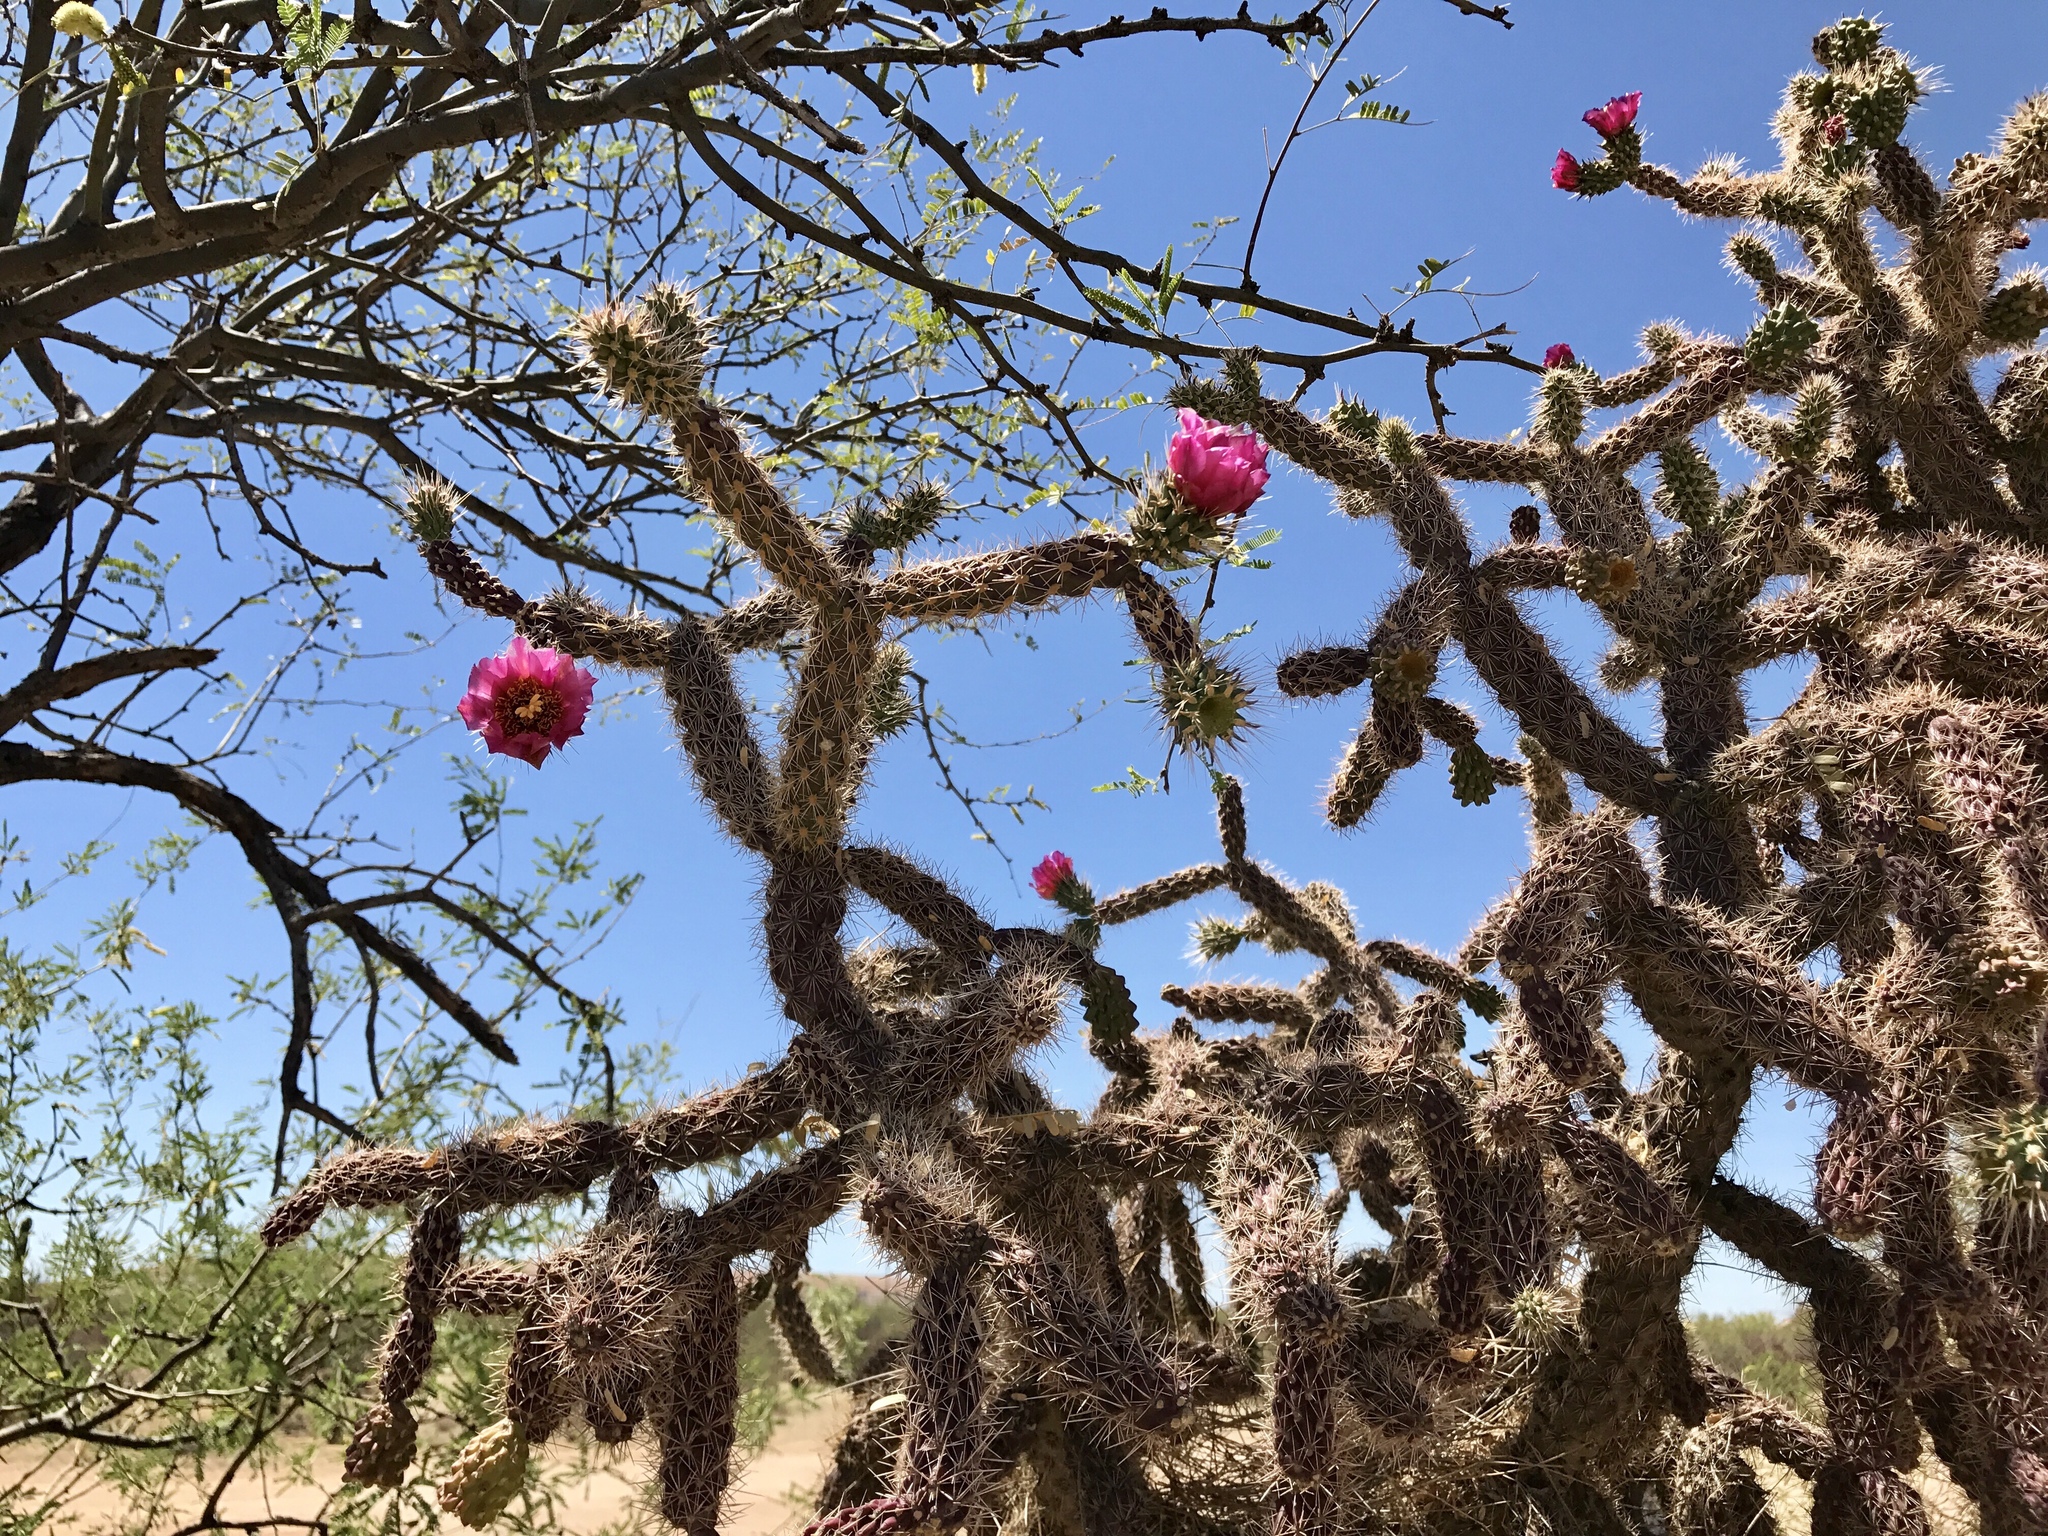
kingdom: Plantae
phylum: Tracheophyta
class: Magnoliopsida
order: Caryophyllales
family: Cactaceae
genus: Cylindropuntia
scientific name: Cylindropuntia kelvinensis
